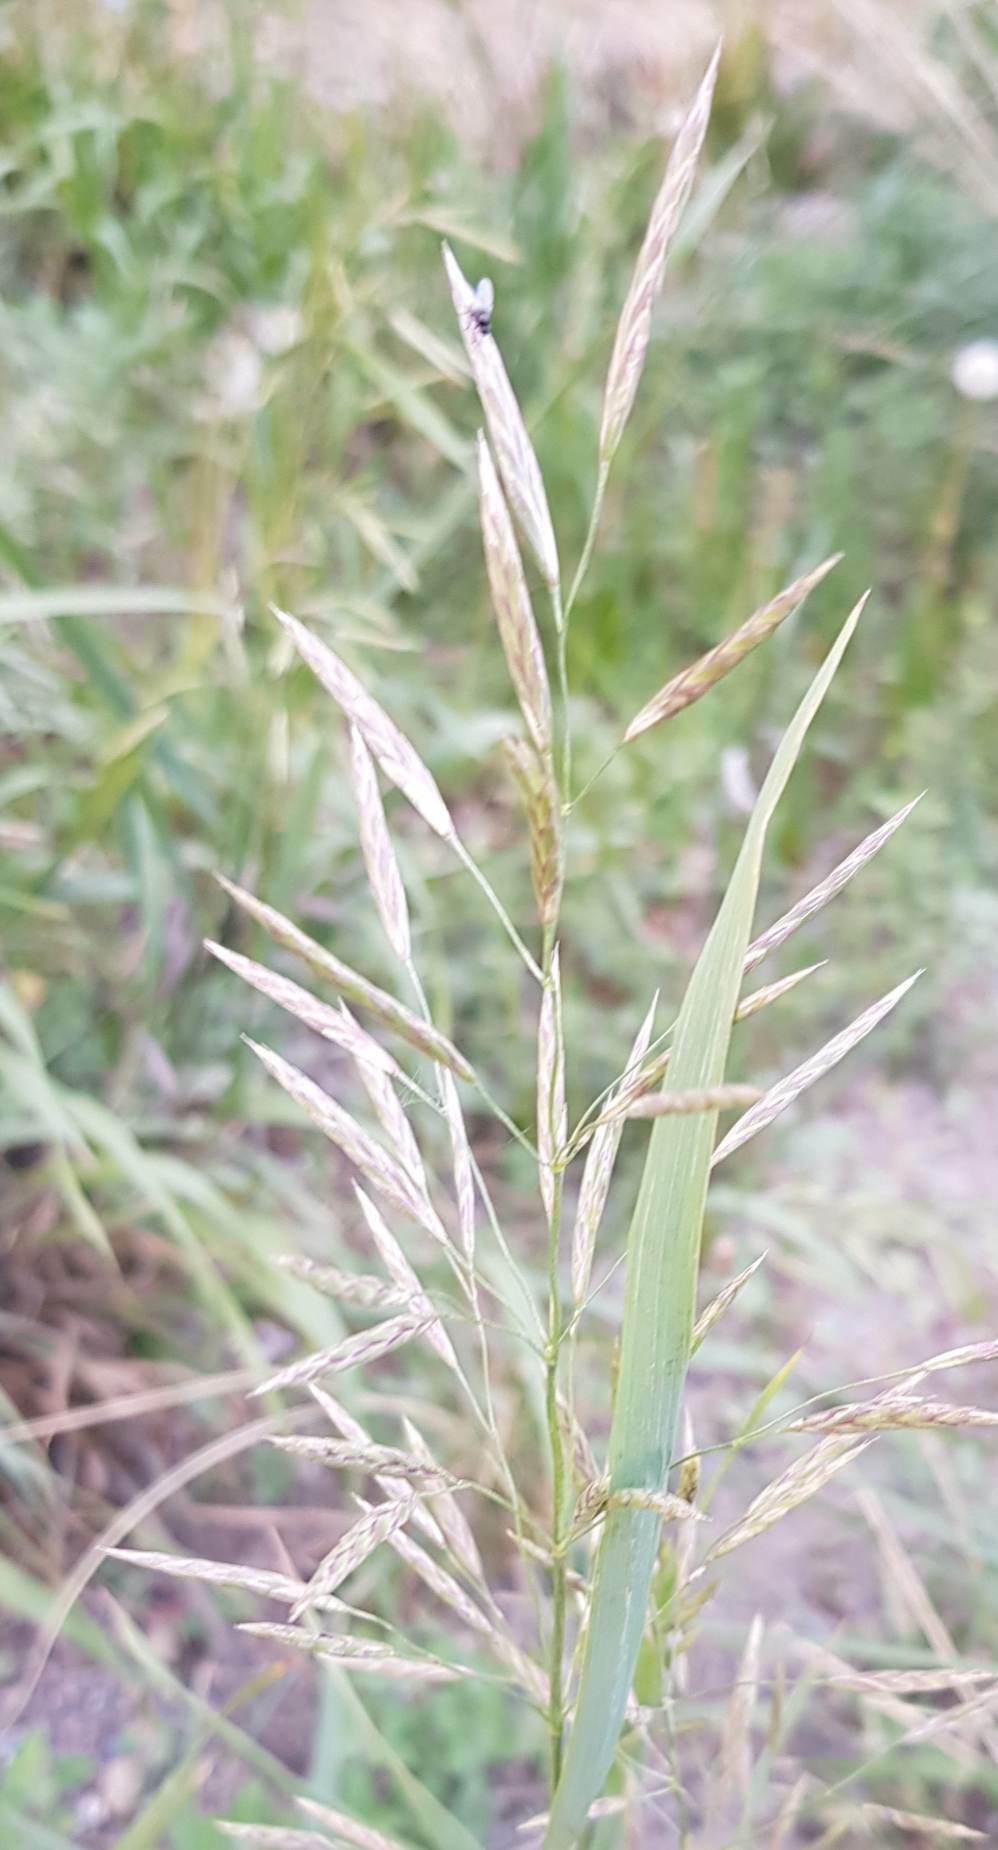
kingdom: Plantae
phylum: Tracheophyta
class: Liliopsida
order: Poales
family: Poaceae
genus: Bromus
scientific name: Bromus inermis
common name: Smooth brome
